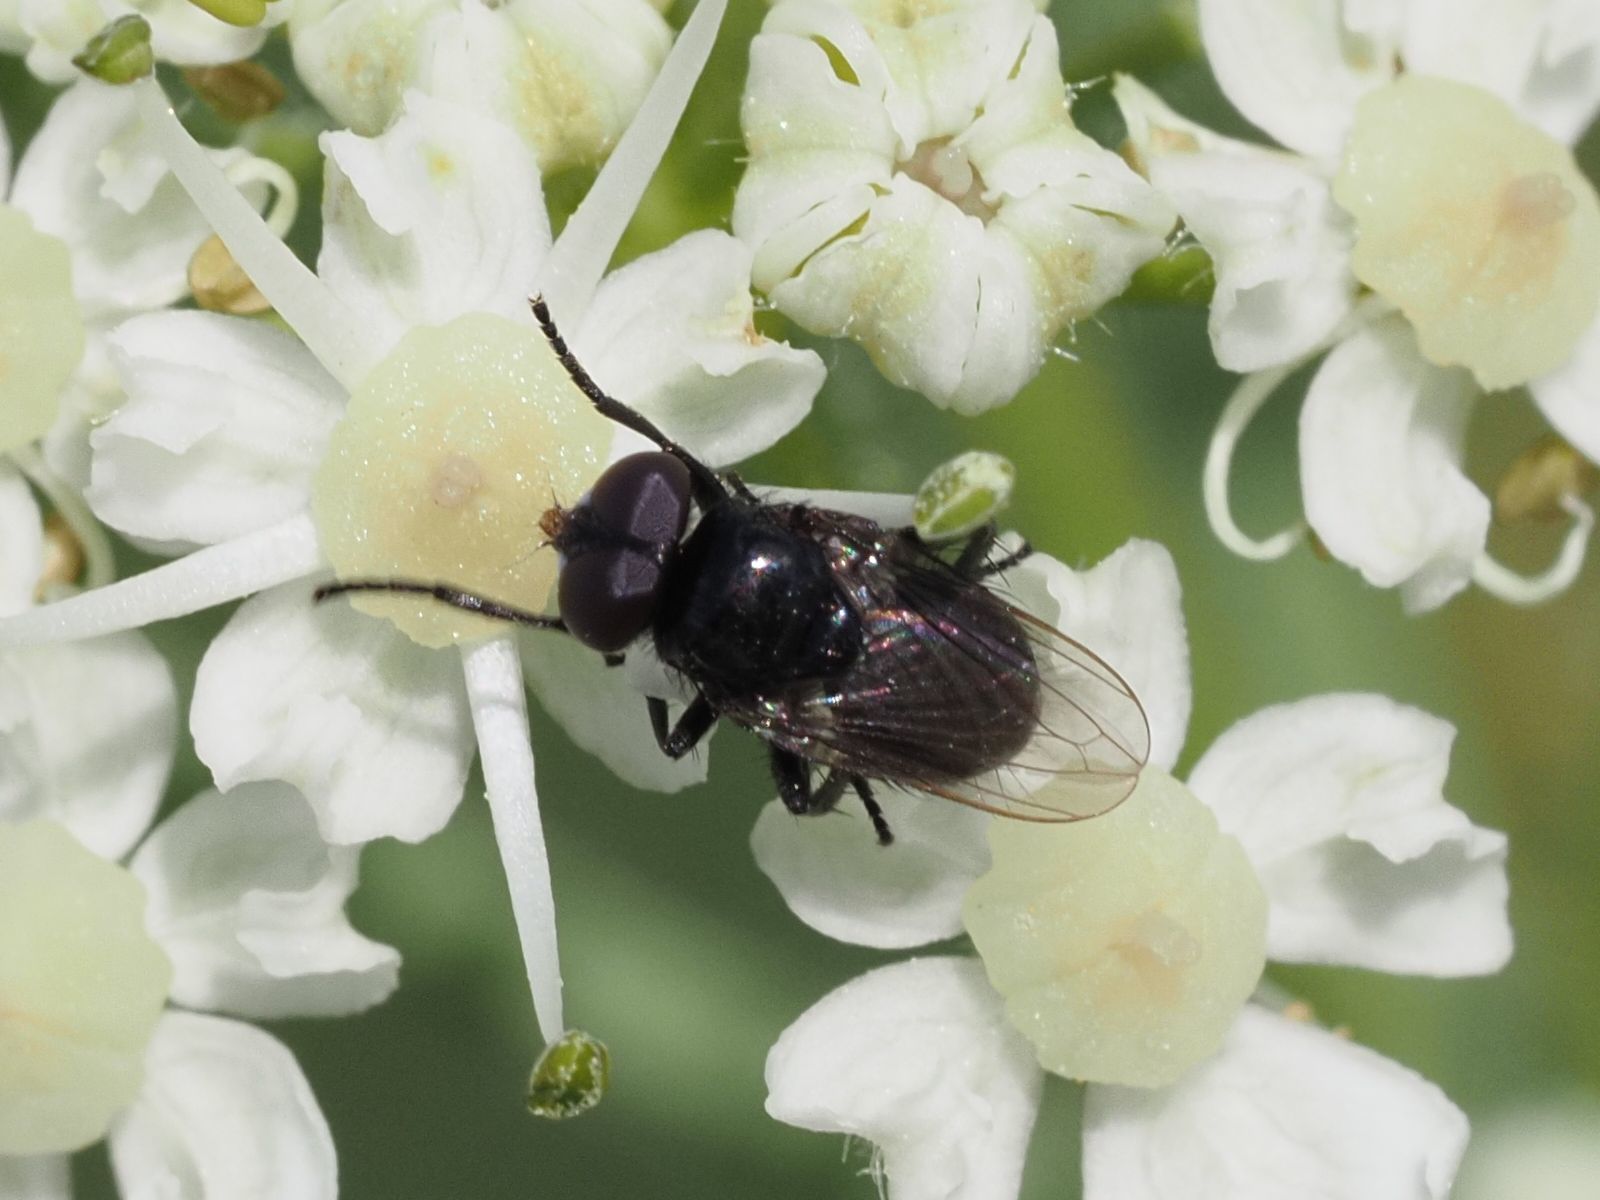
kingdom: Animalia
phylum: Arthropoda
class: Insecta
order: Diptera
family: Tachinidae
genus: Litophasia
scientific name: Litophasia hyalipennis
